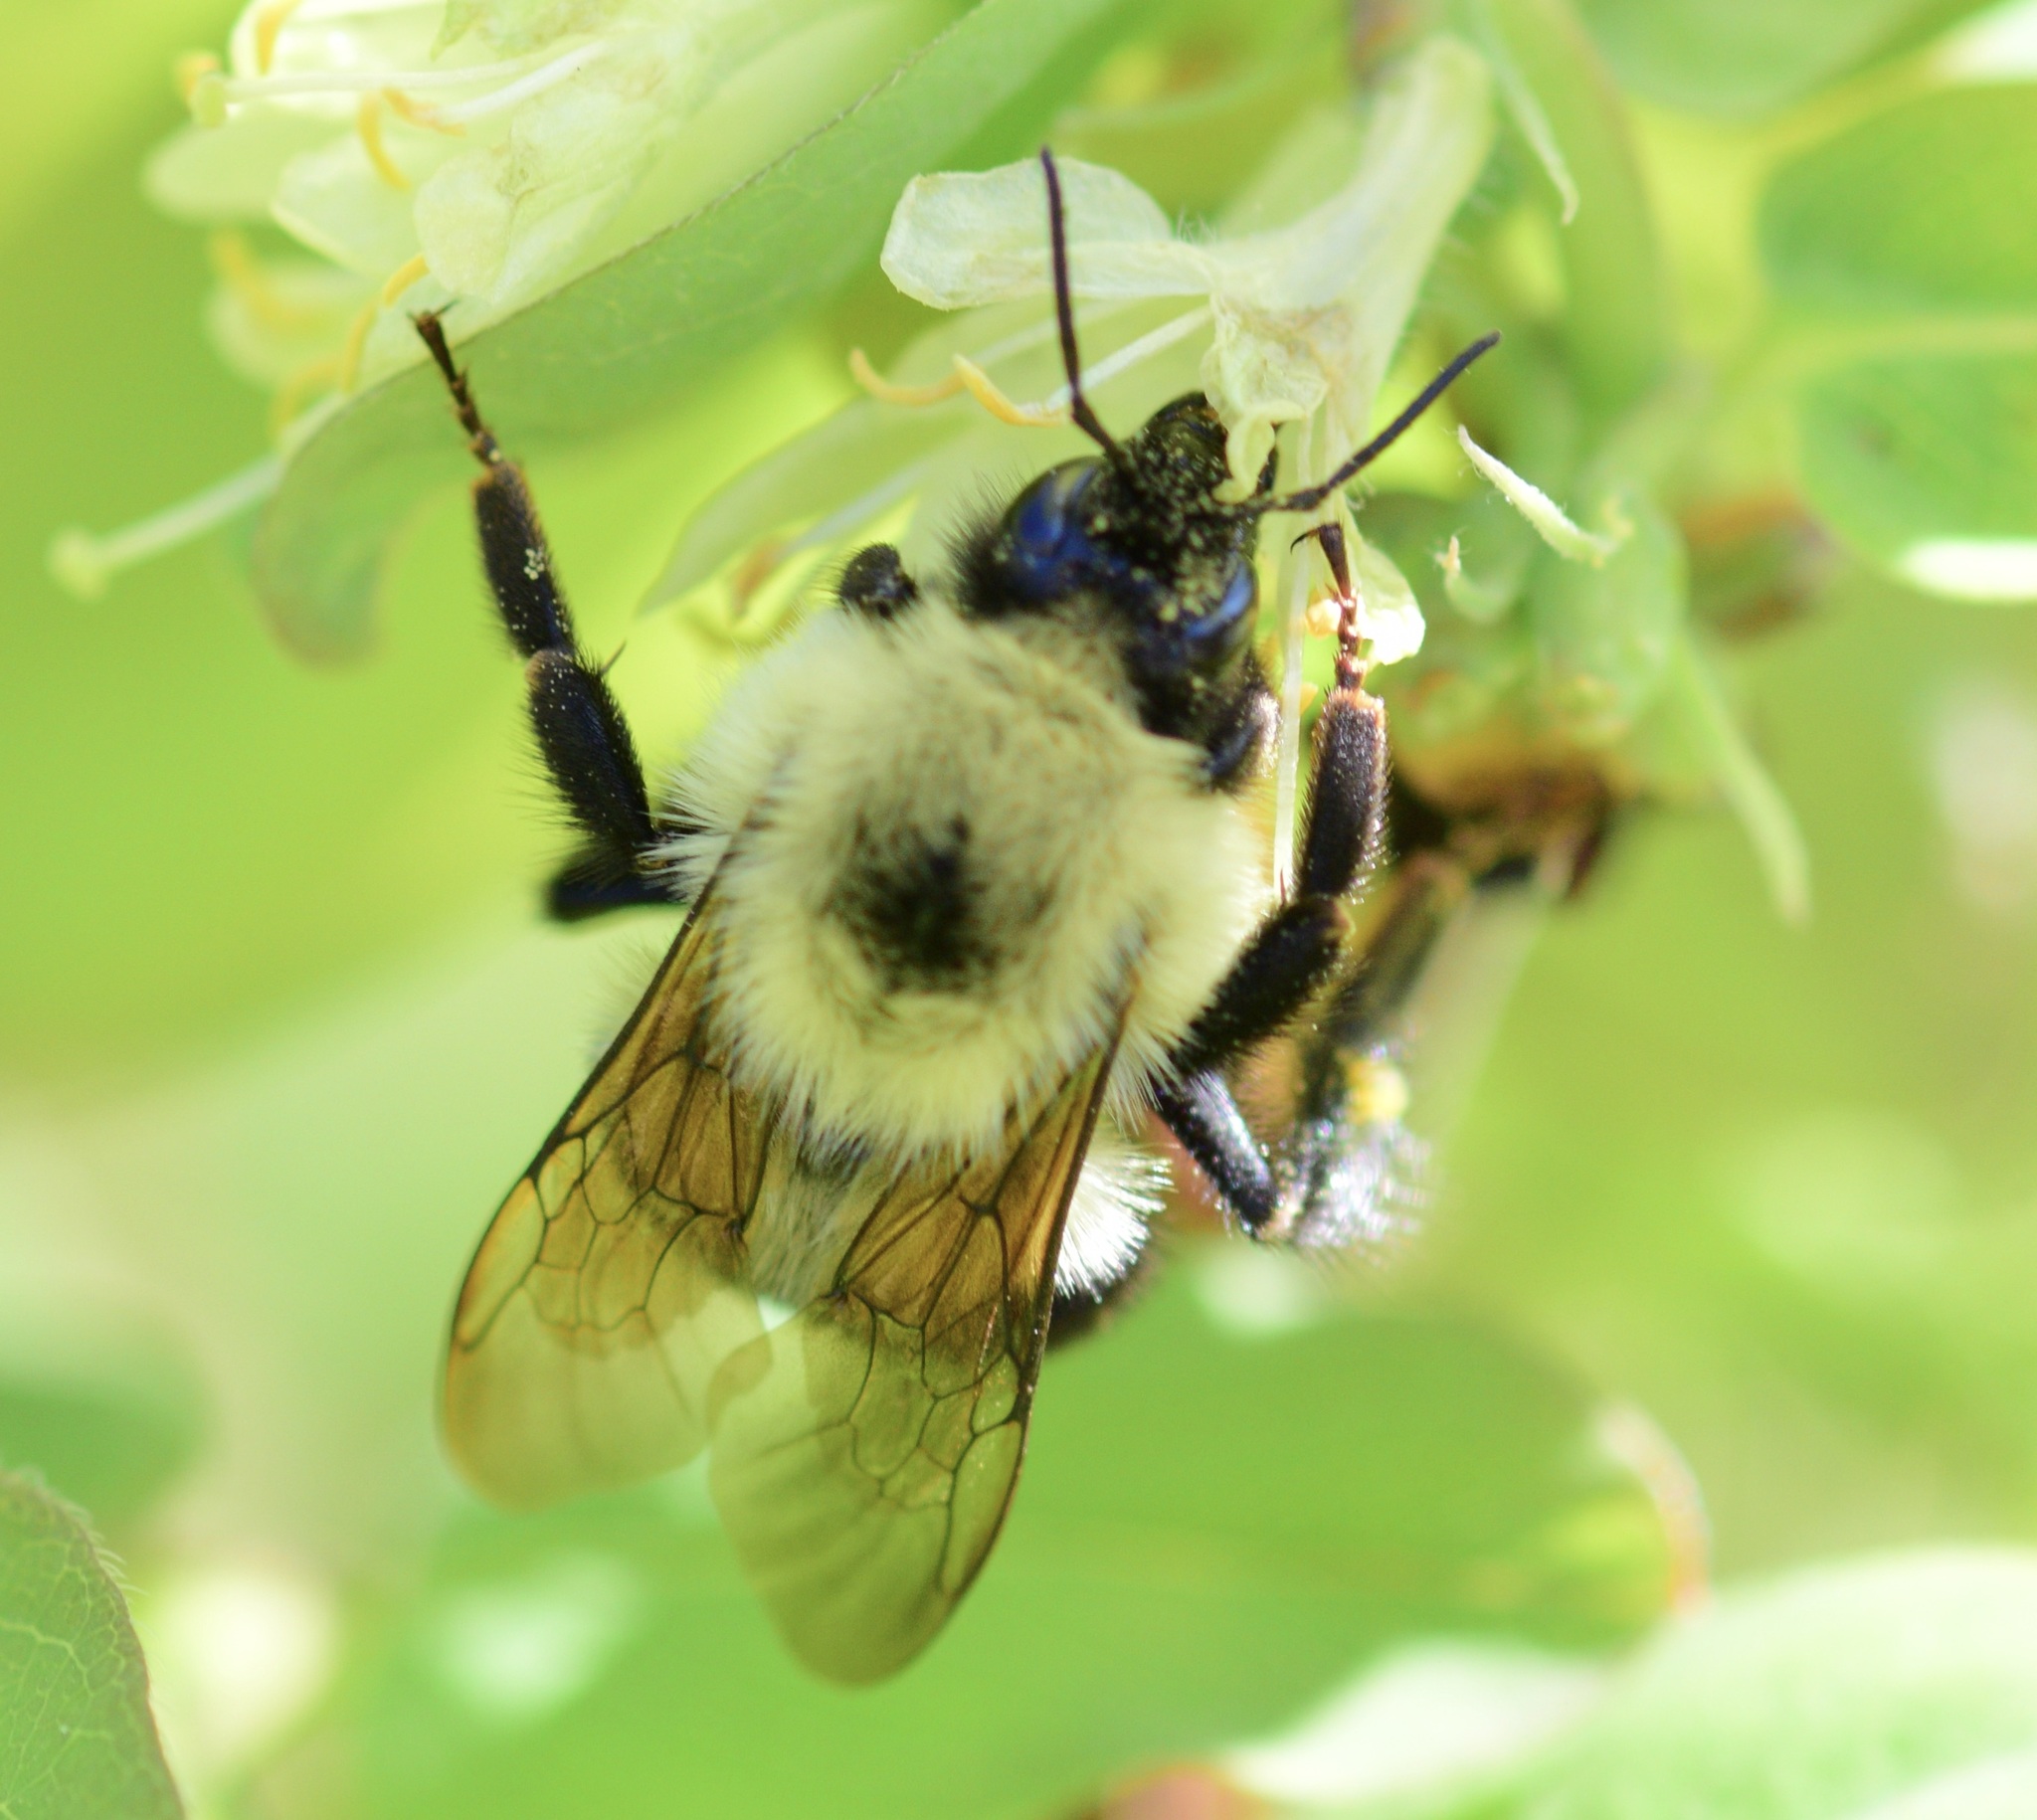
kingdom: Animalia
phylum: Arthropoda
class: Insecta
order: Hymenoptera
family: Apidae
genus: Bombus
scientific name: Bombus bimaculatus
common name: Two-spotted bumble bee
